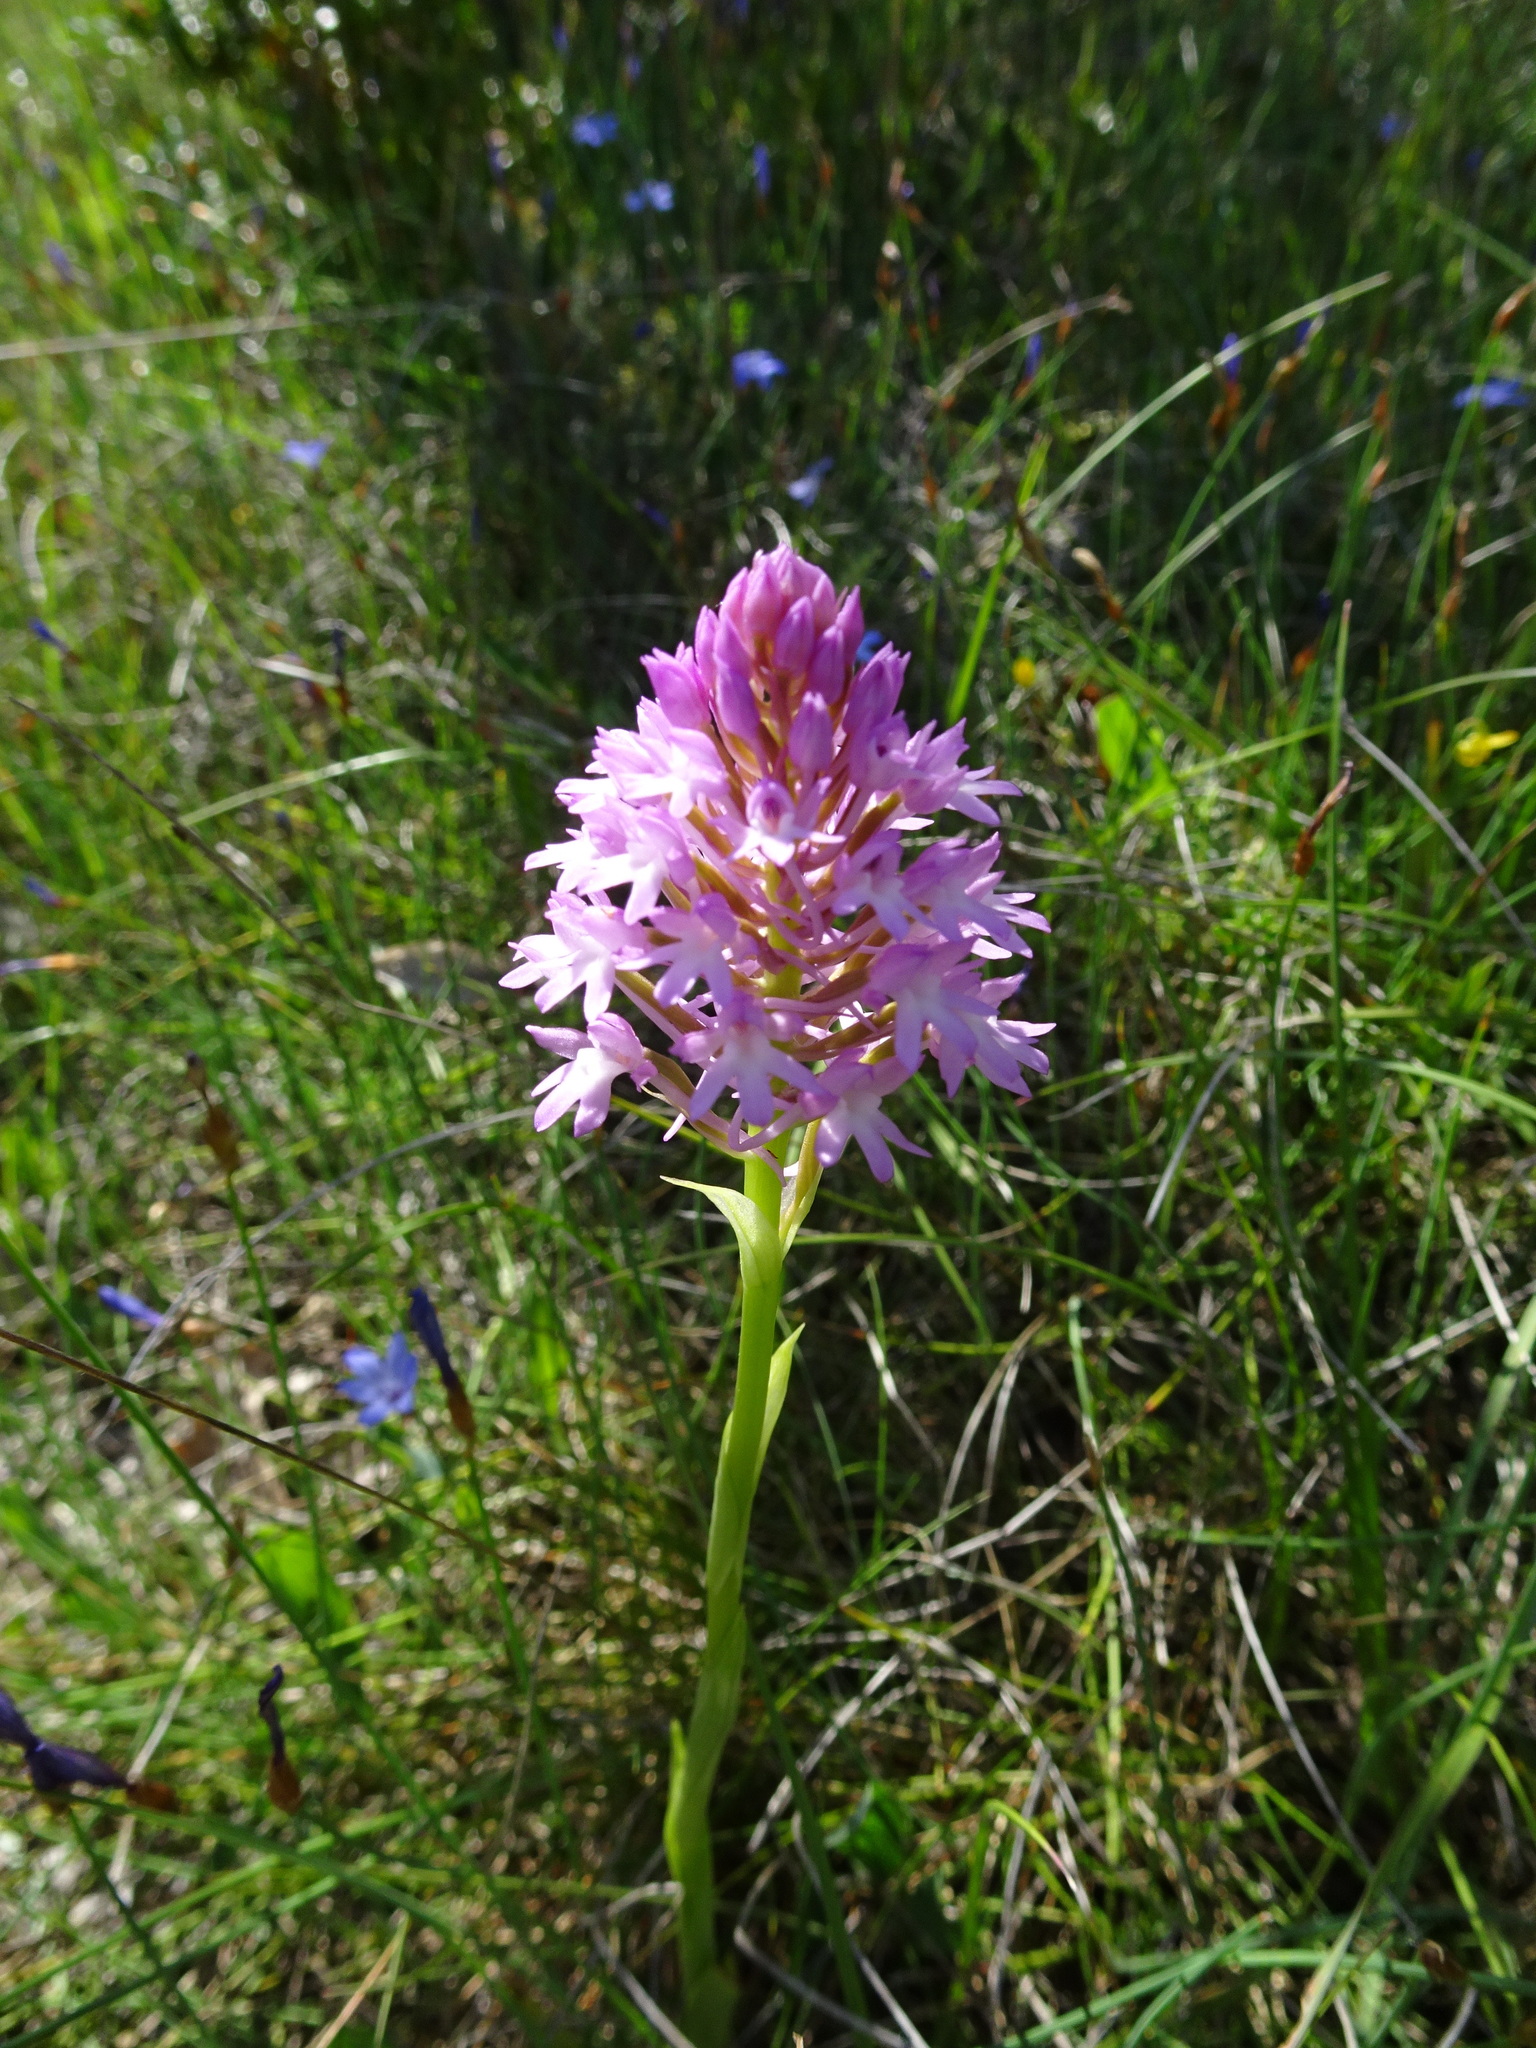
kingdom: Plantae
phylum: Tracheophyta
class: Liliopsida
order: Asparagales
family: Orchidaceae
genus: Anacamptis
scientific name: Anacamptis pyramidalis
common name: Pyramidal orchid
